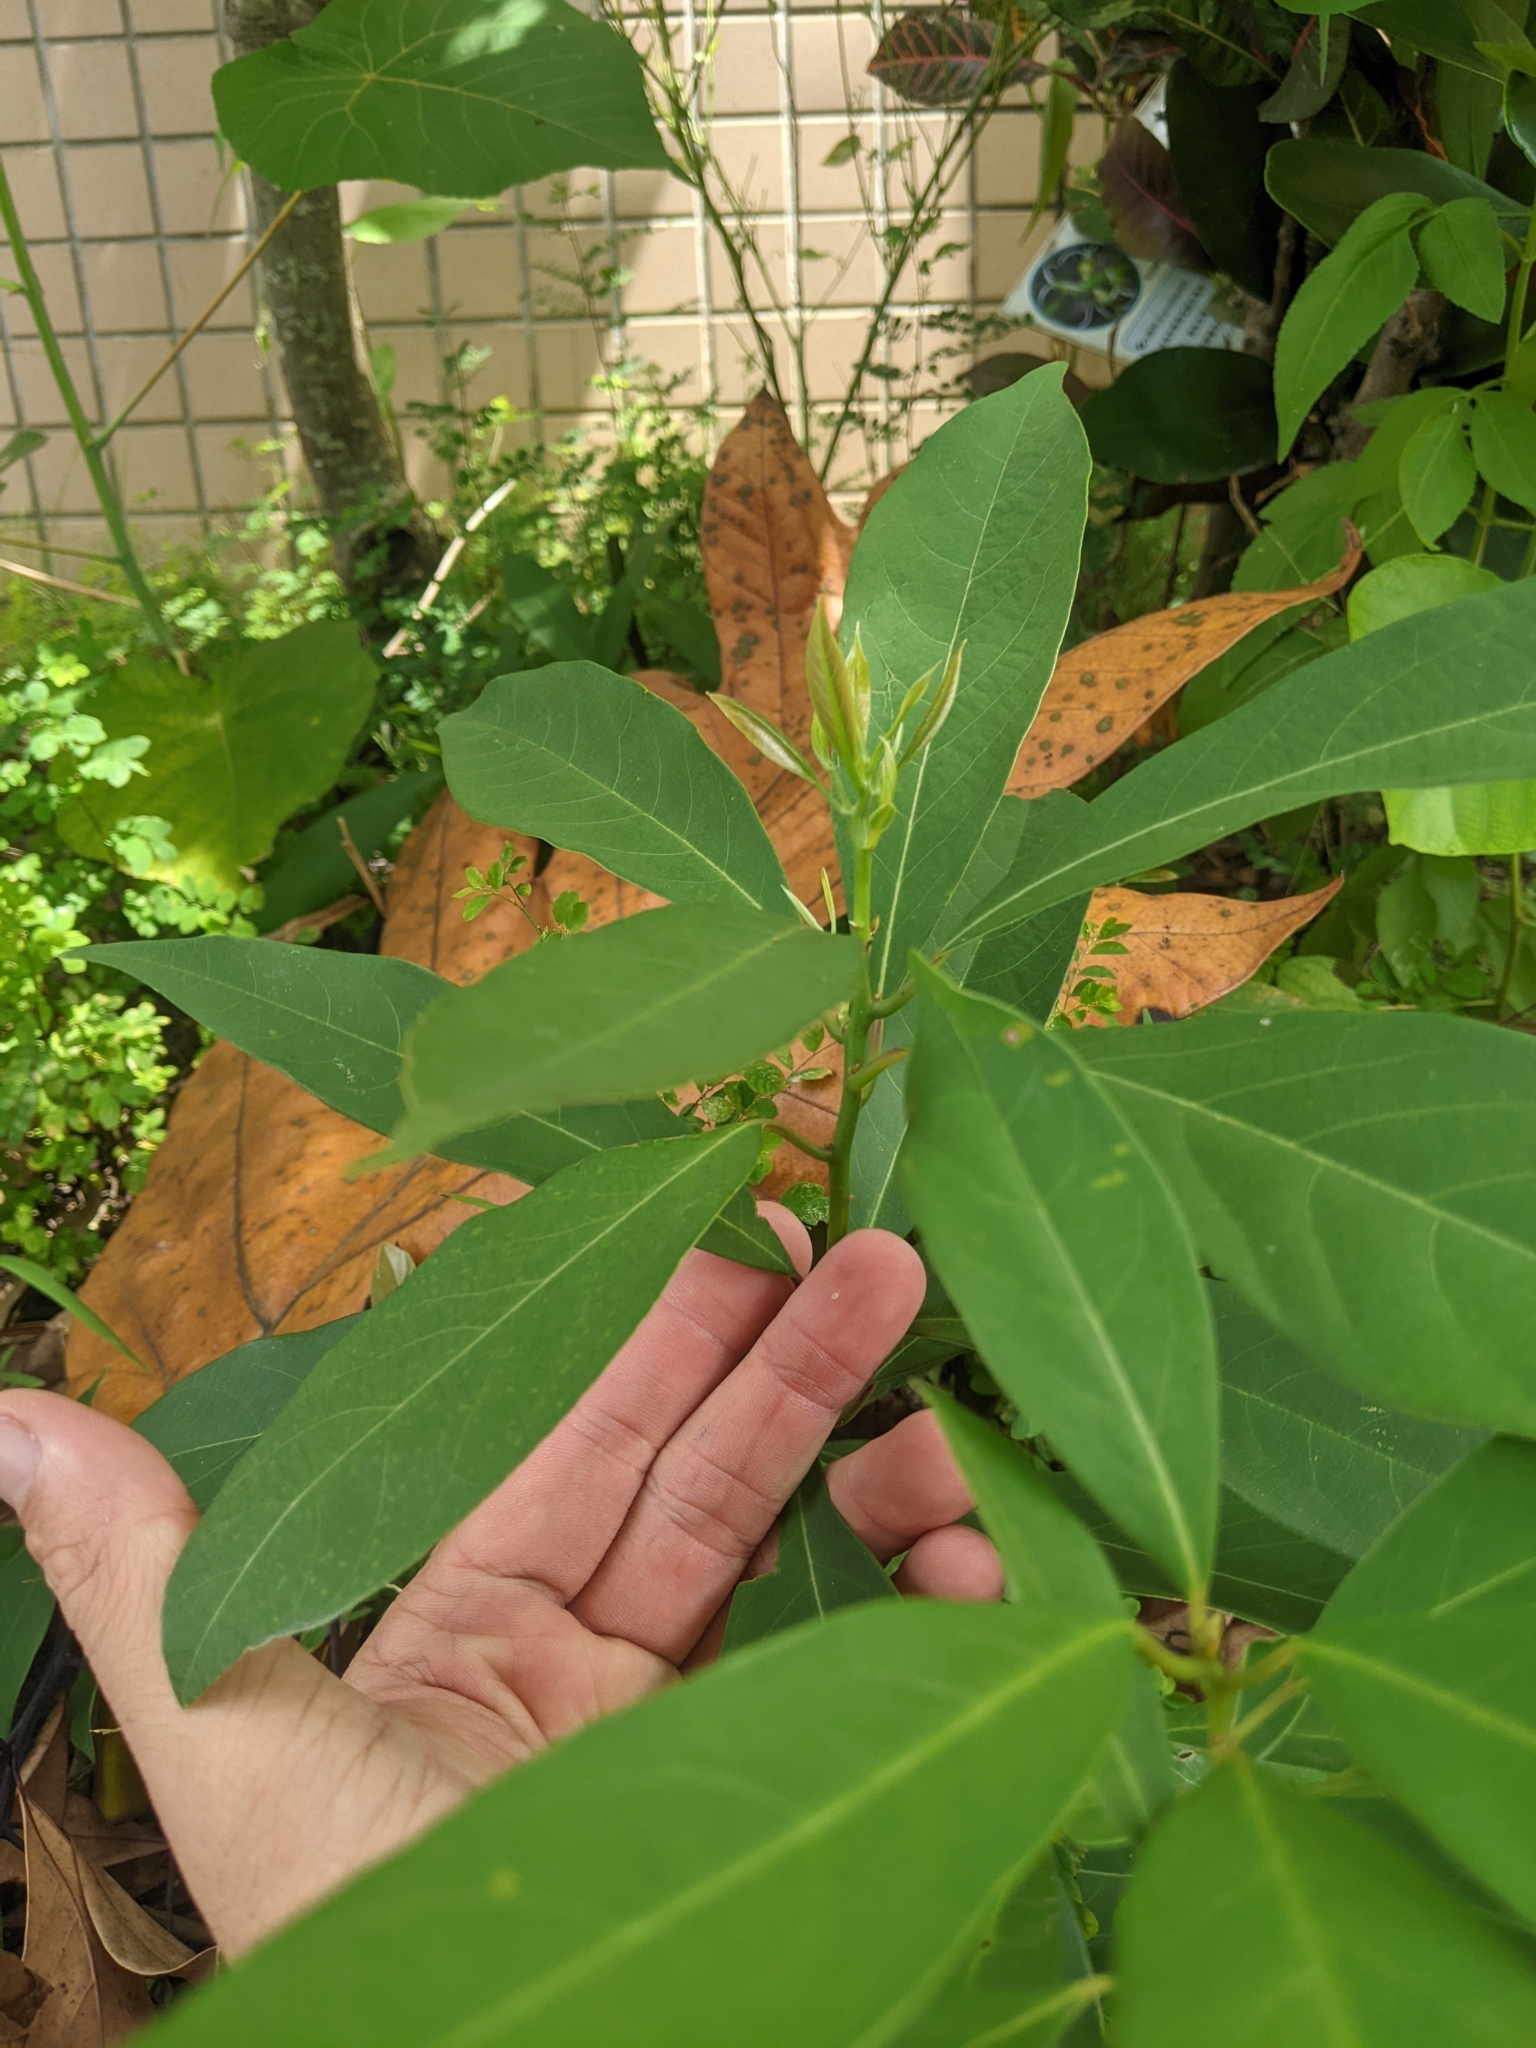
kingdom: Plantae
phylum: Tracheophyta
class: Magnoliopsida
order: Laurales
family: Lauraceae
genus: Machilus
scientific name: Machilus zuihoensis
